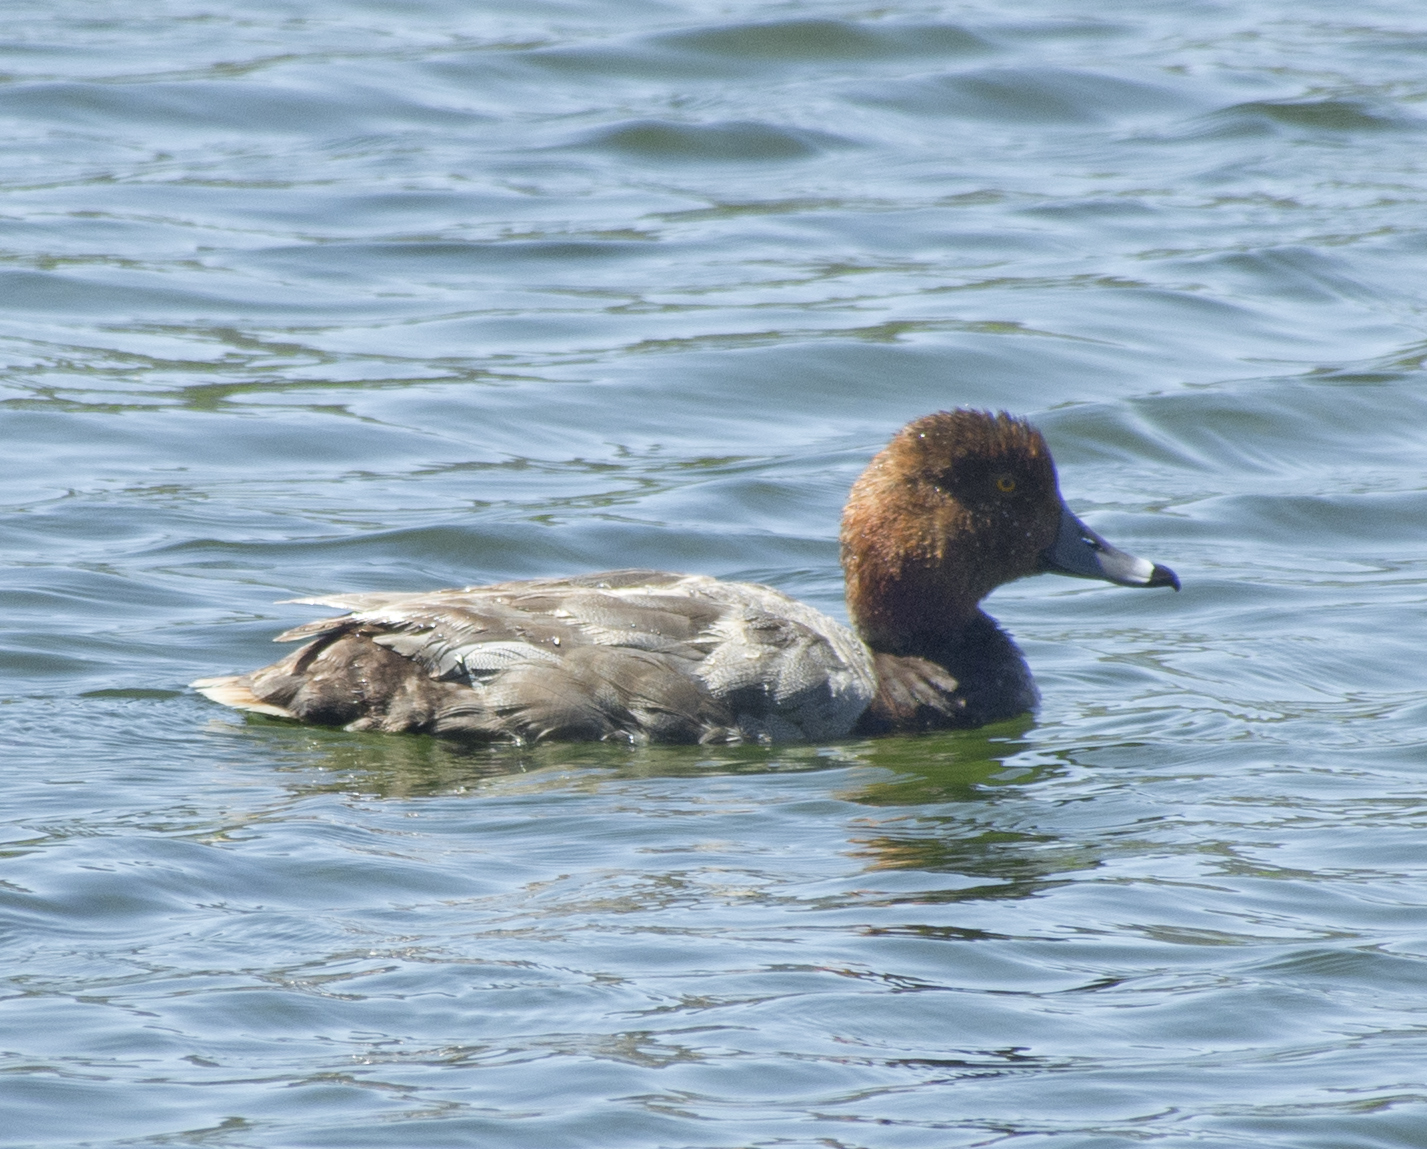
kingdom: Animalia
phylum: Chordata
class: Aves
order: Anseriformes
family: Anatidae
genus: Aythya
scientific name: Aythya americana
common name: Redhead
